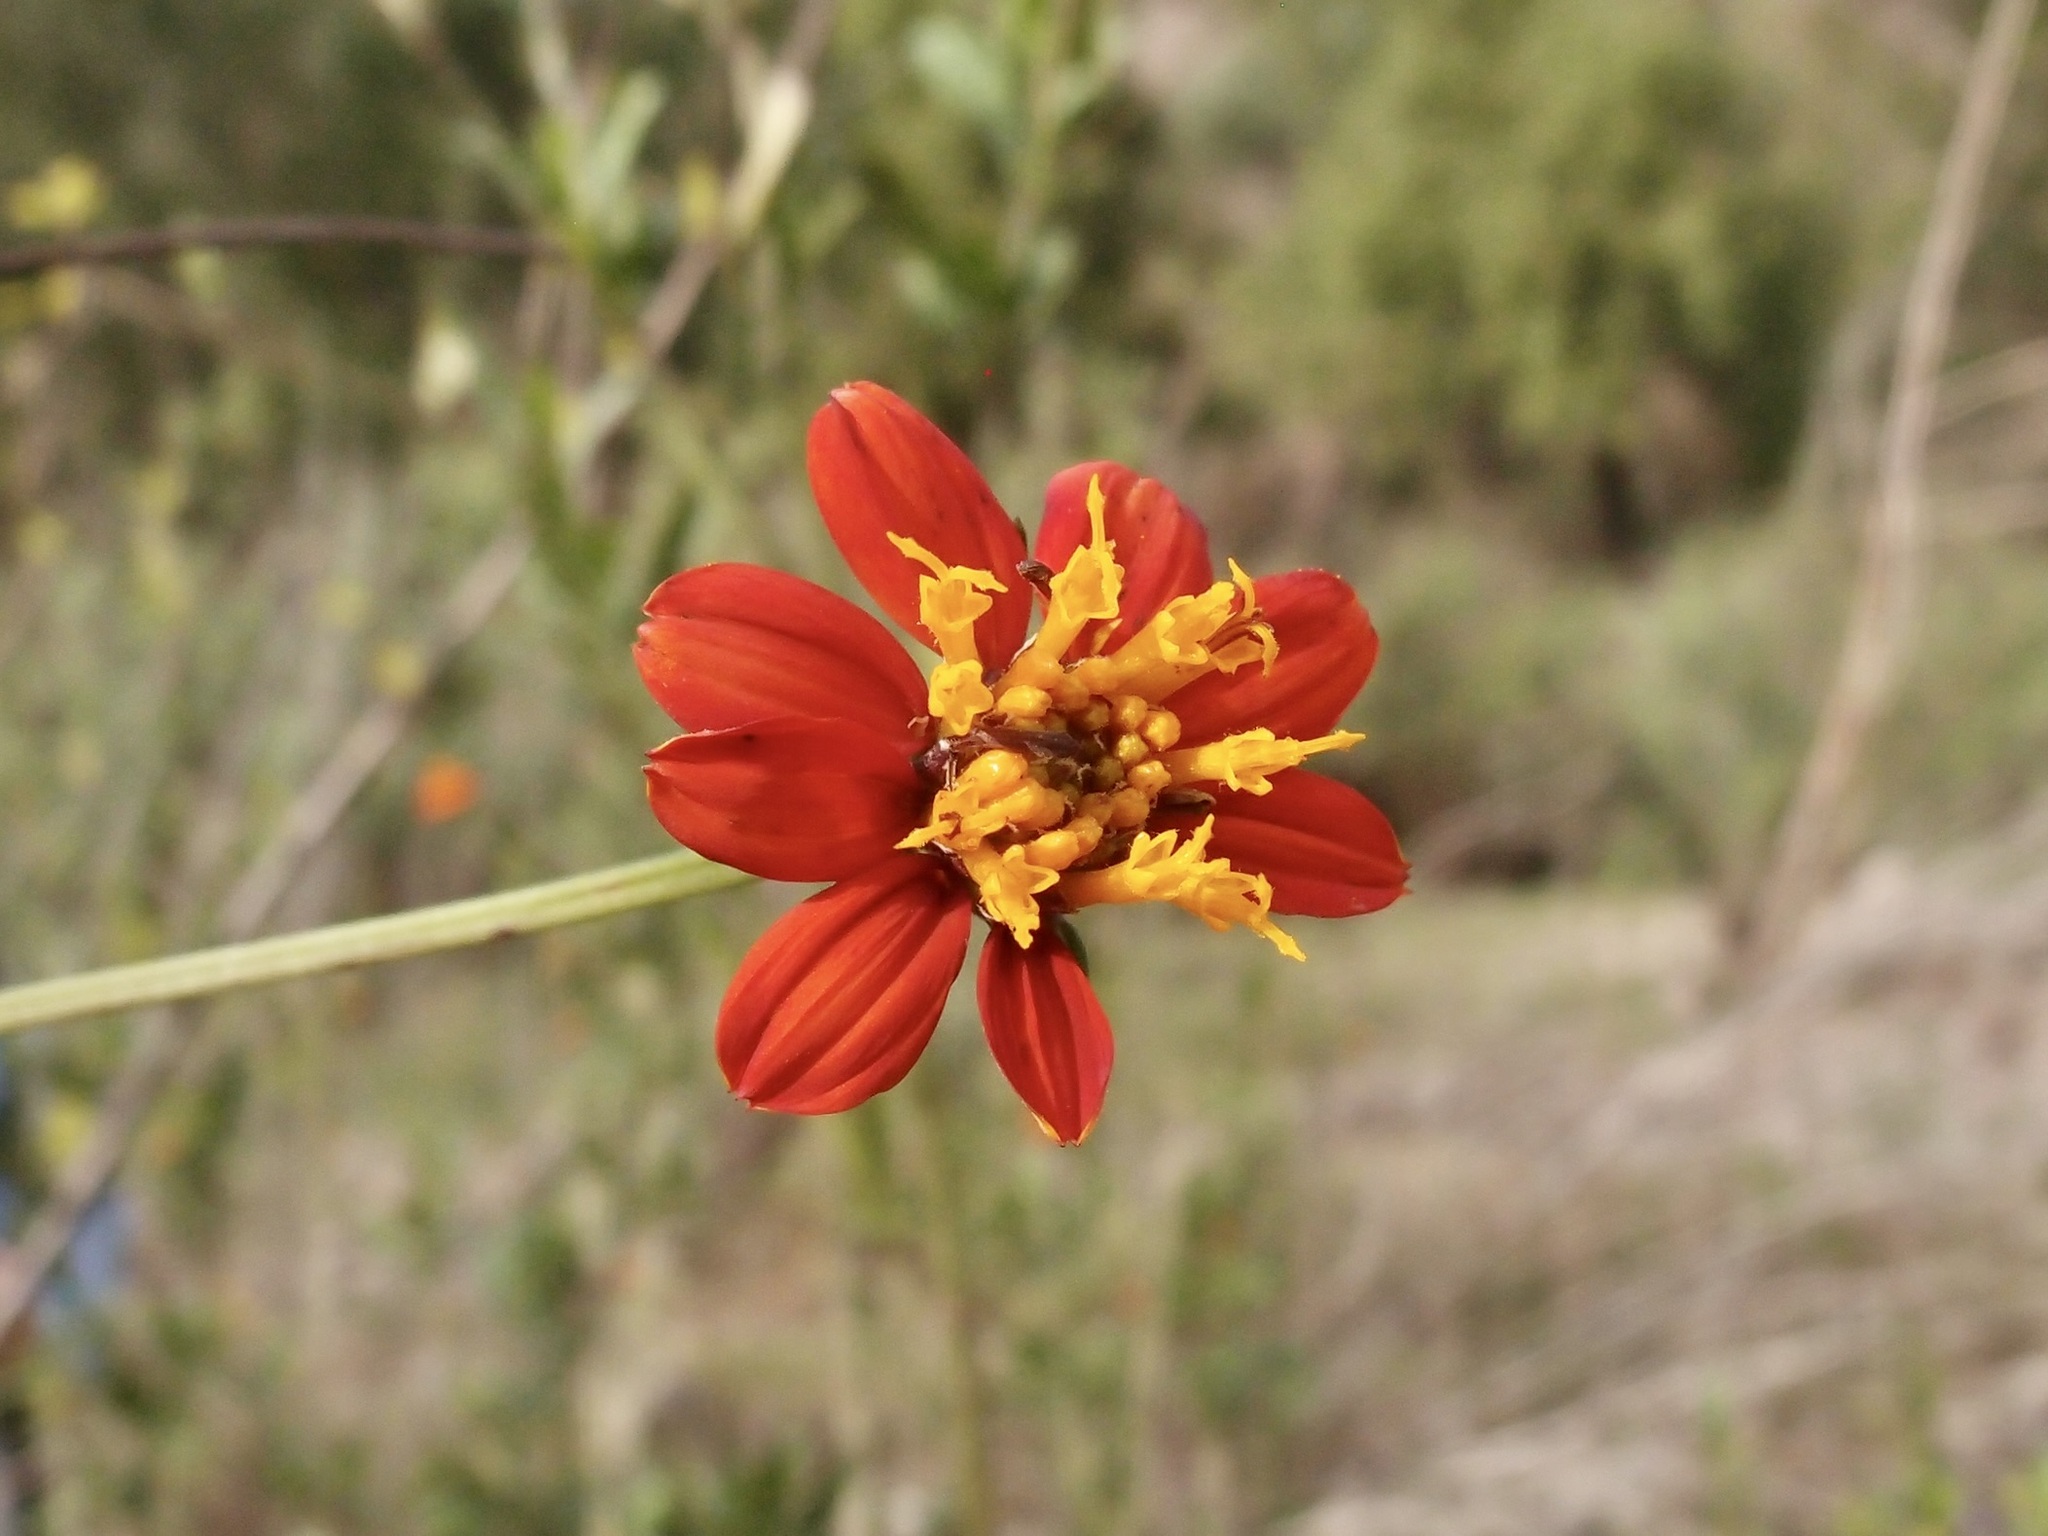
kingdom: Plantae
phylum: Tracheophyta
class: Magnoliopsida
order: Asterales
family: Asteraceae
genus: Bidens
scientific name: Bidens sambucifolia
